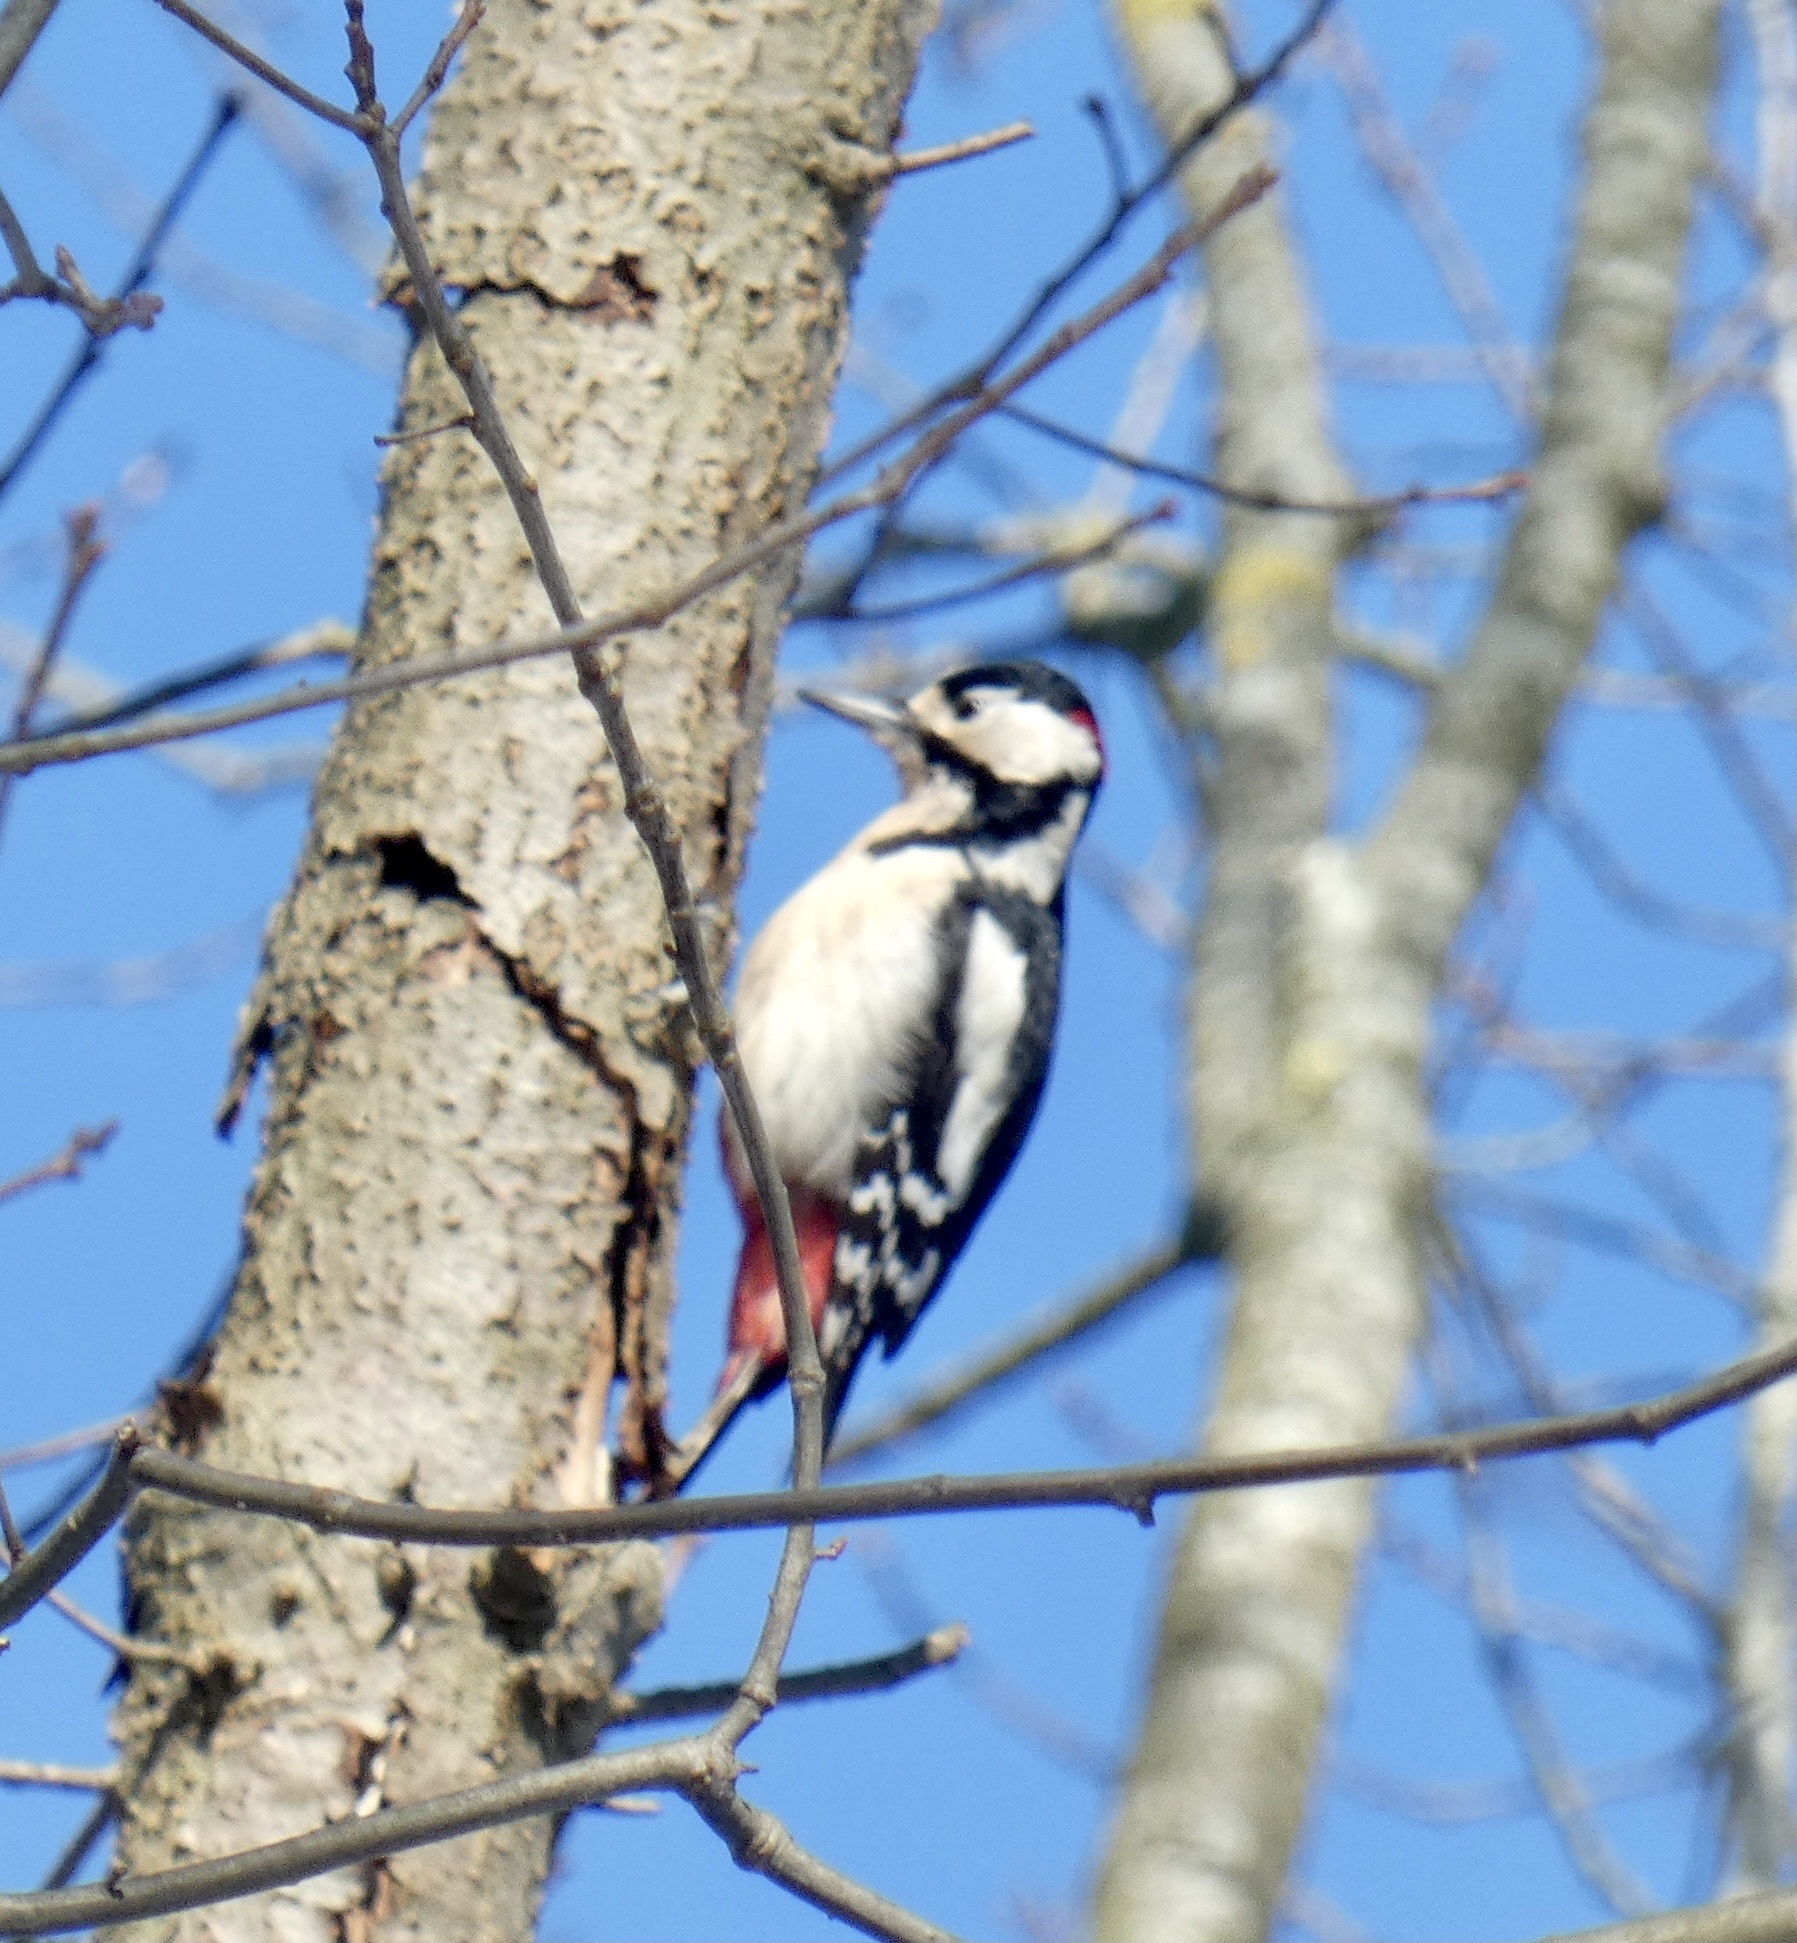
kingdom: Animalia
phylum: Chordata
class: Aves
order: Piciformes
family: Picidae
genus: Dendrocopos
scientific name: Dendrocopos major
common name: Great spotted woodpecker
